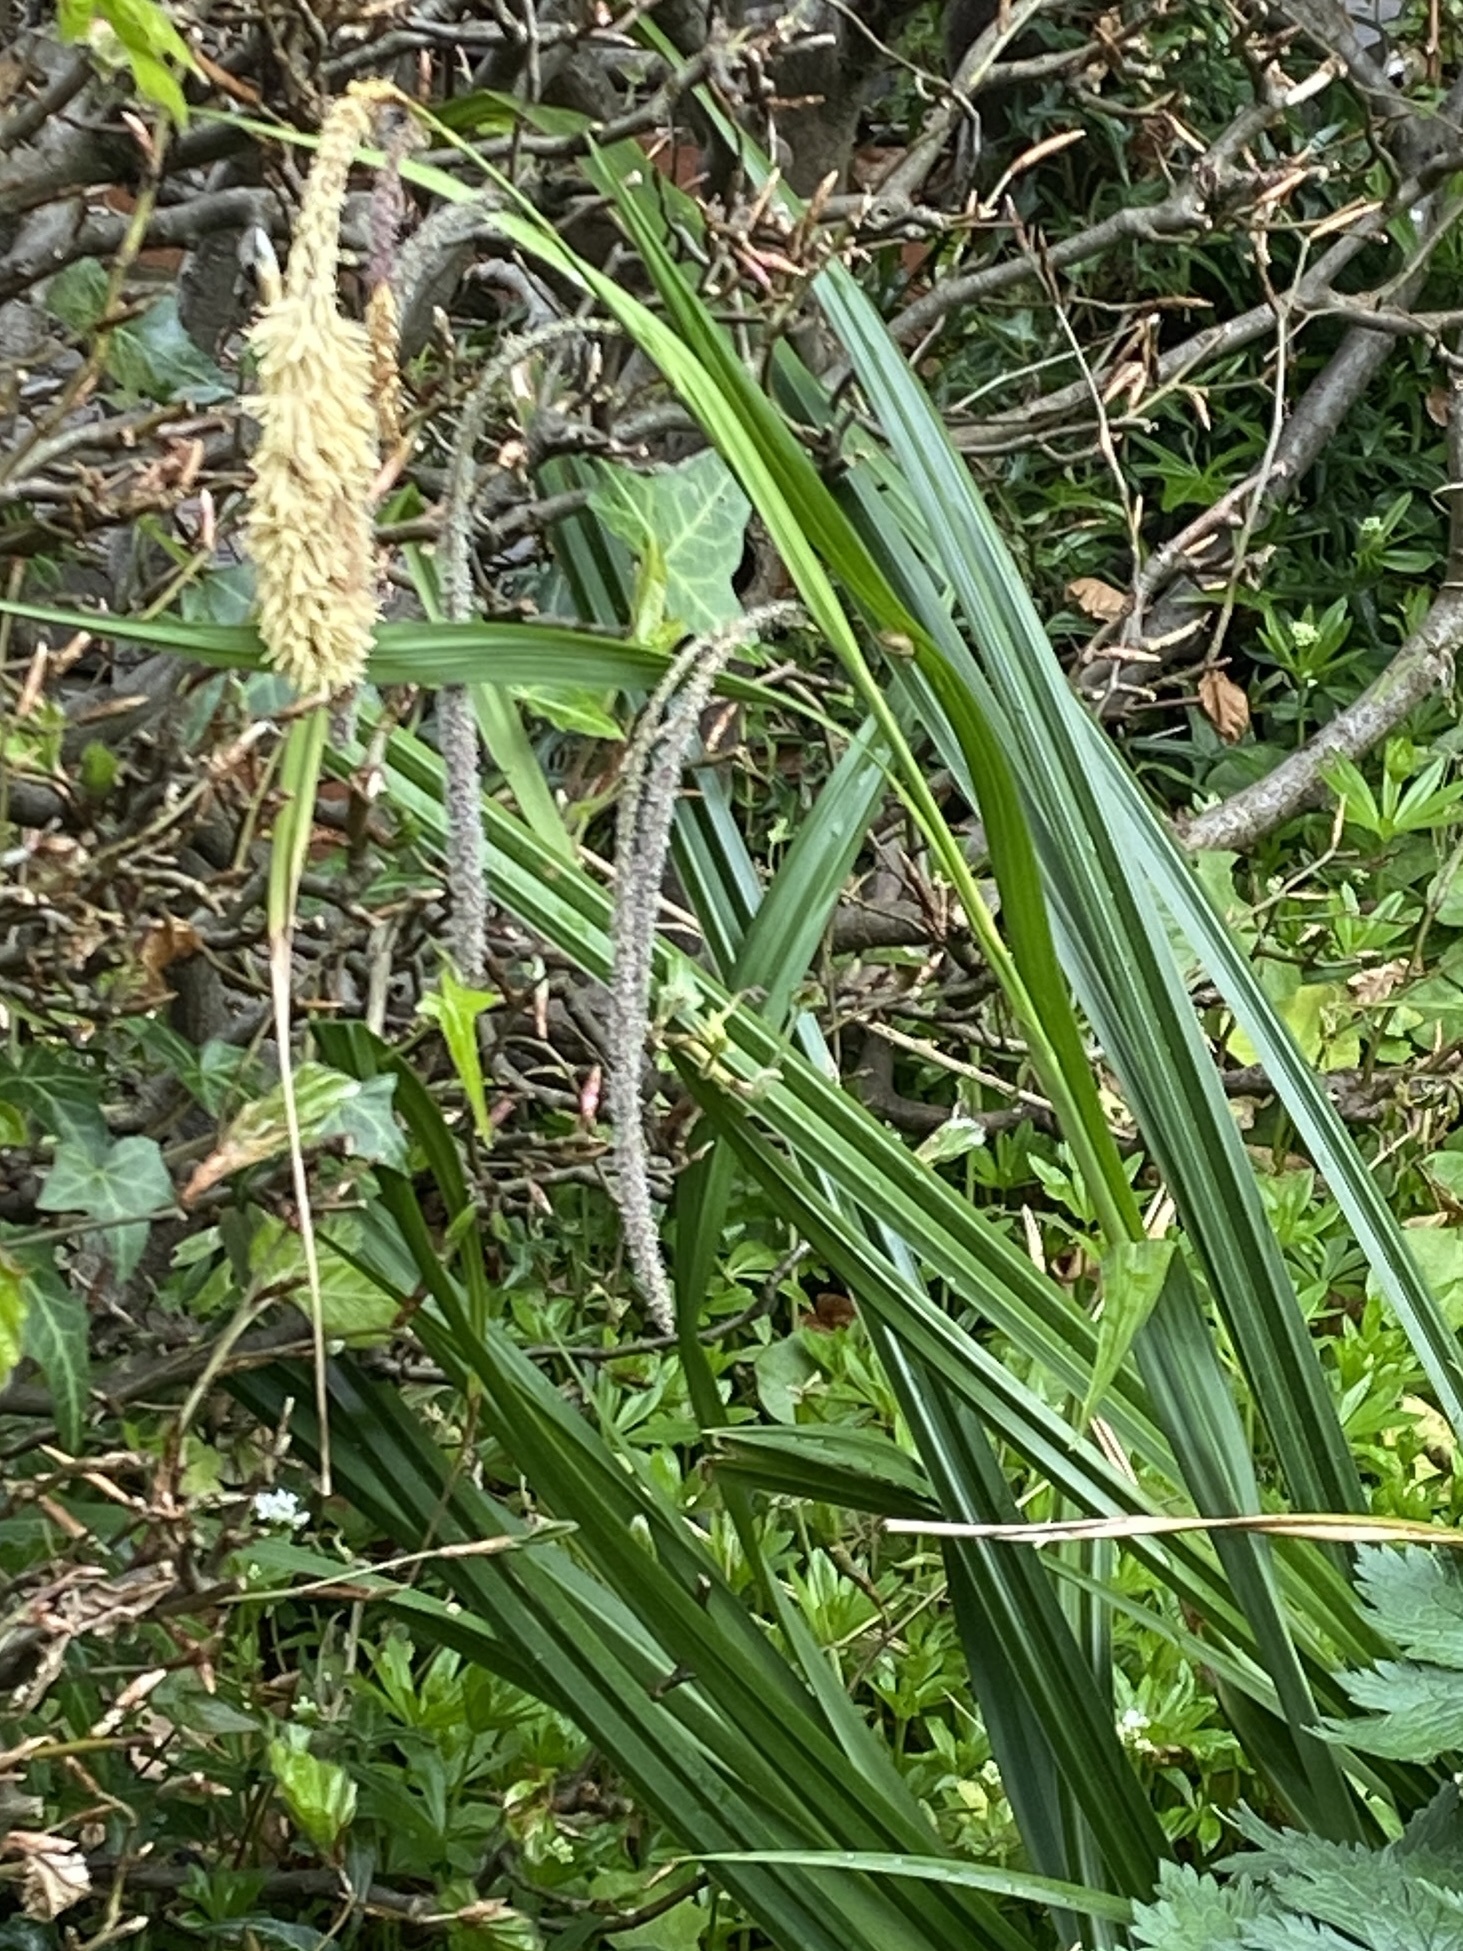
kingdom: Plantae
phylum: Tracheophyta
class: Liliopsida
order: Poales
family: Cyperaceae
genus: Carex
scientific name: Carex pendula
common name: Pendulous sedge
